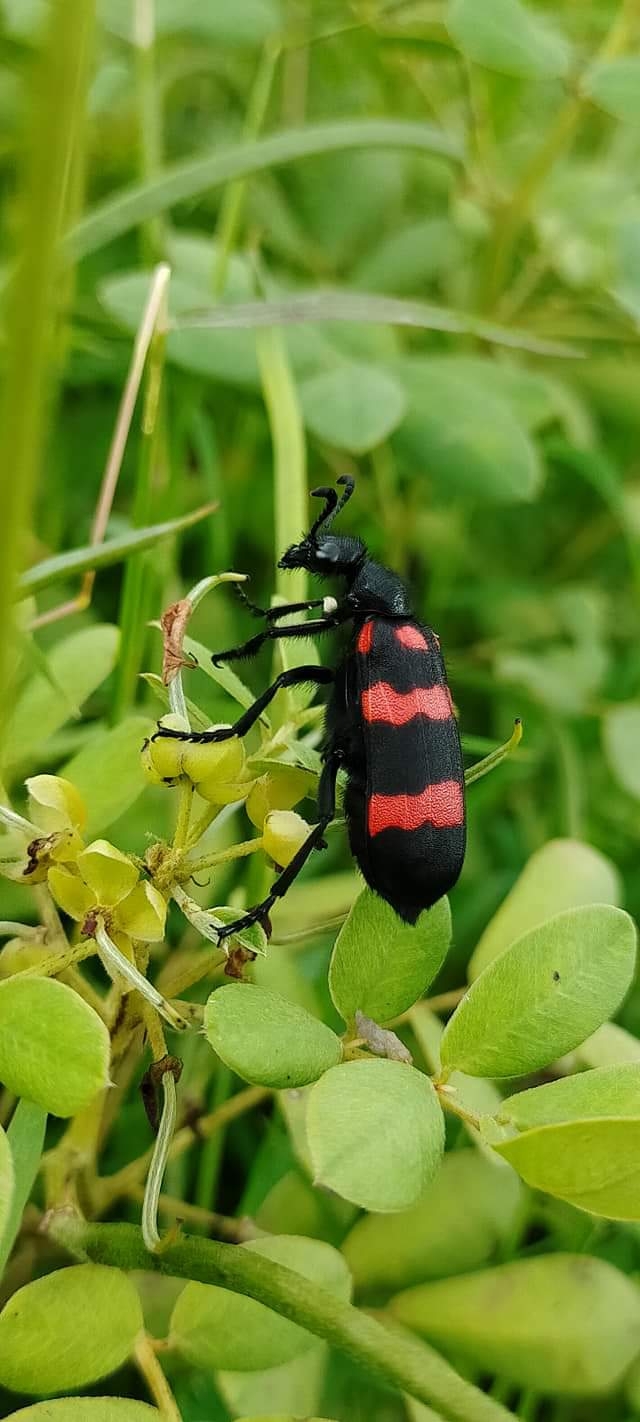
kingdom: Animalia
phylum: Arthropoda
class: Insecta
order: Coleoptera
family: Meloidae
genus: Hycleus
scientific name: Hycleus biundulatus
